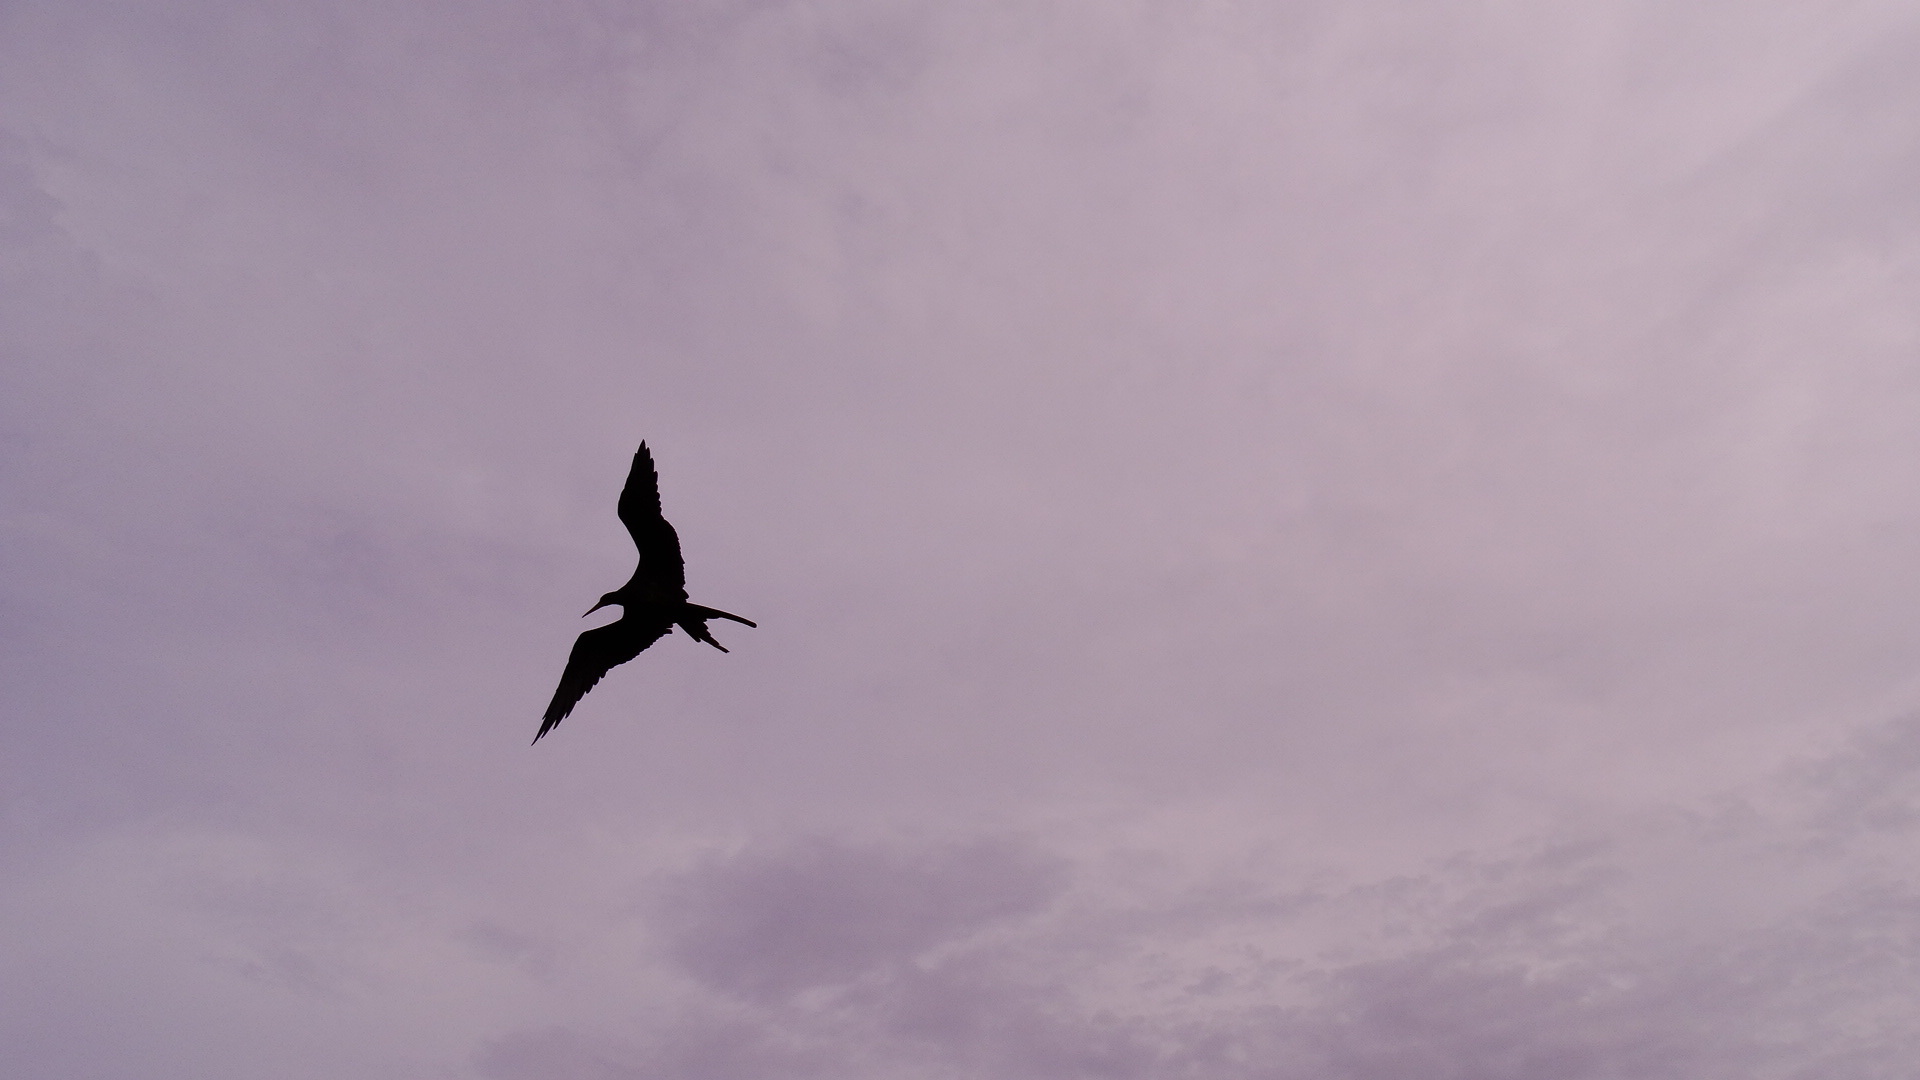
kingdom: Animalia
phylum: Chordata
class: Aves
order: Suliformes
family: Fregatidae
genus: Fregata
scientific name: Fregata magnificens
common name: Magnificent frigatebird
